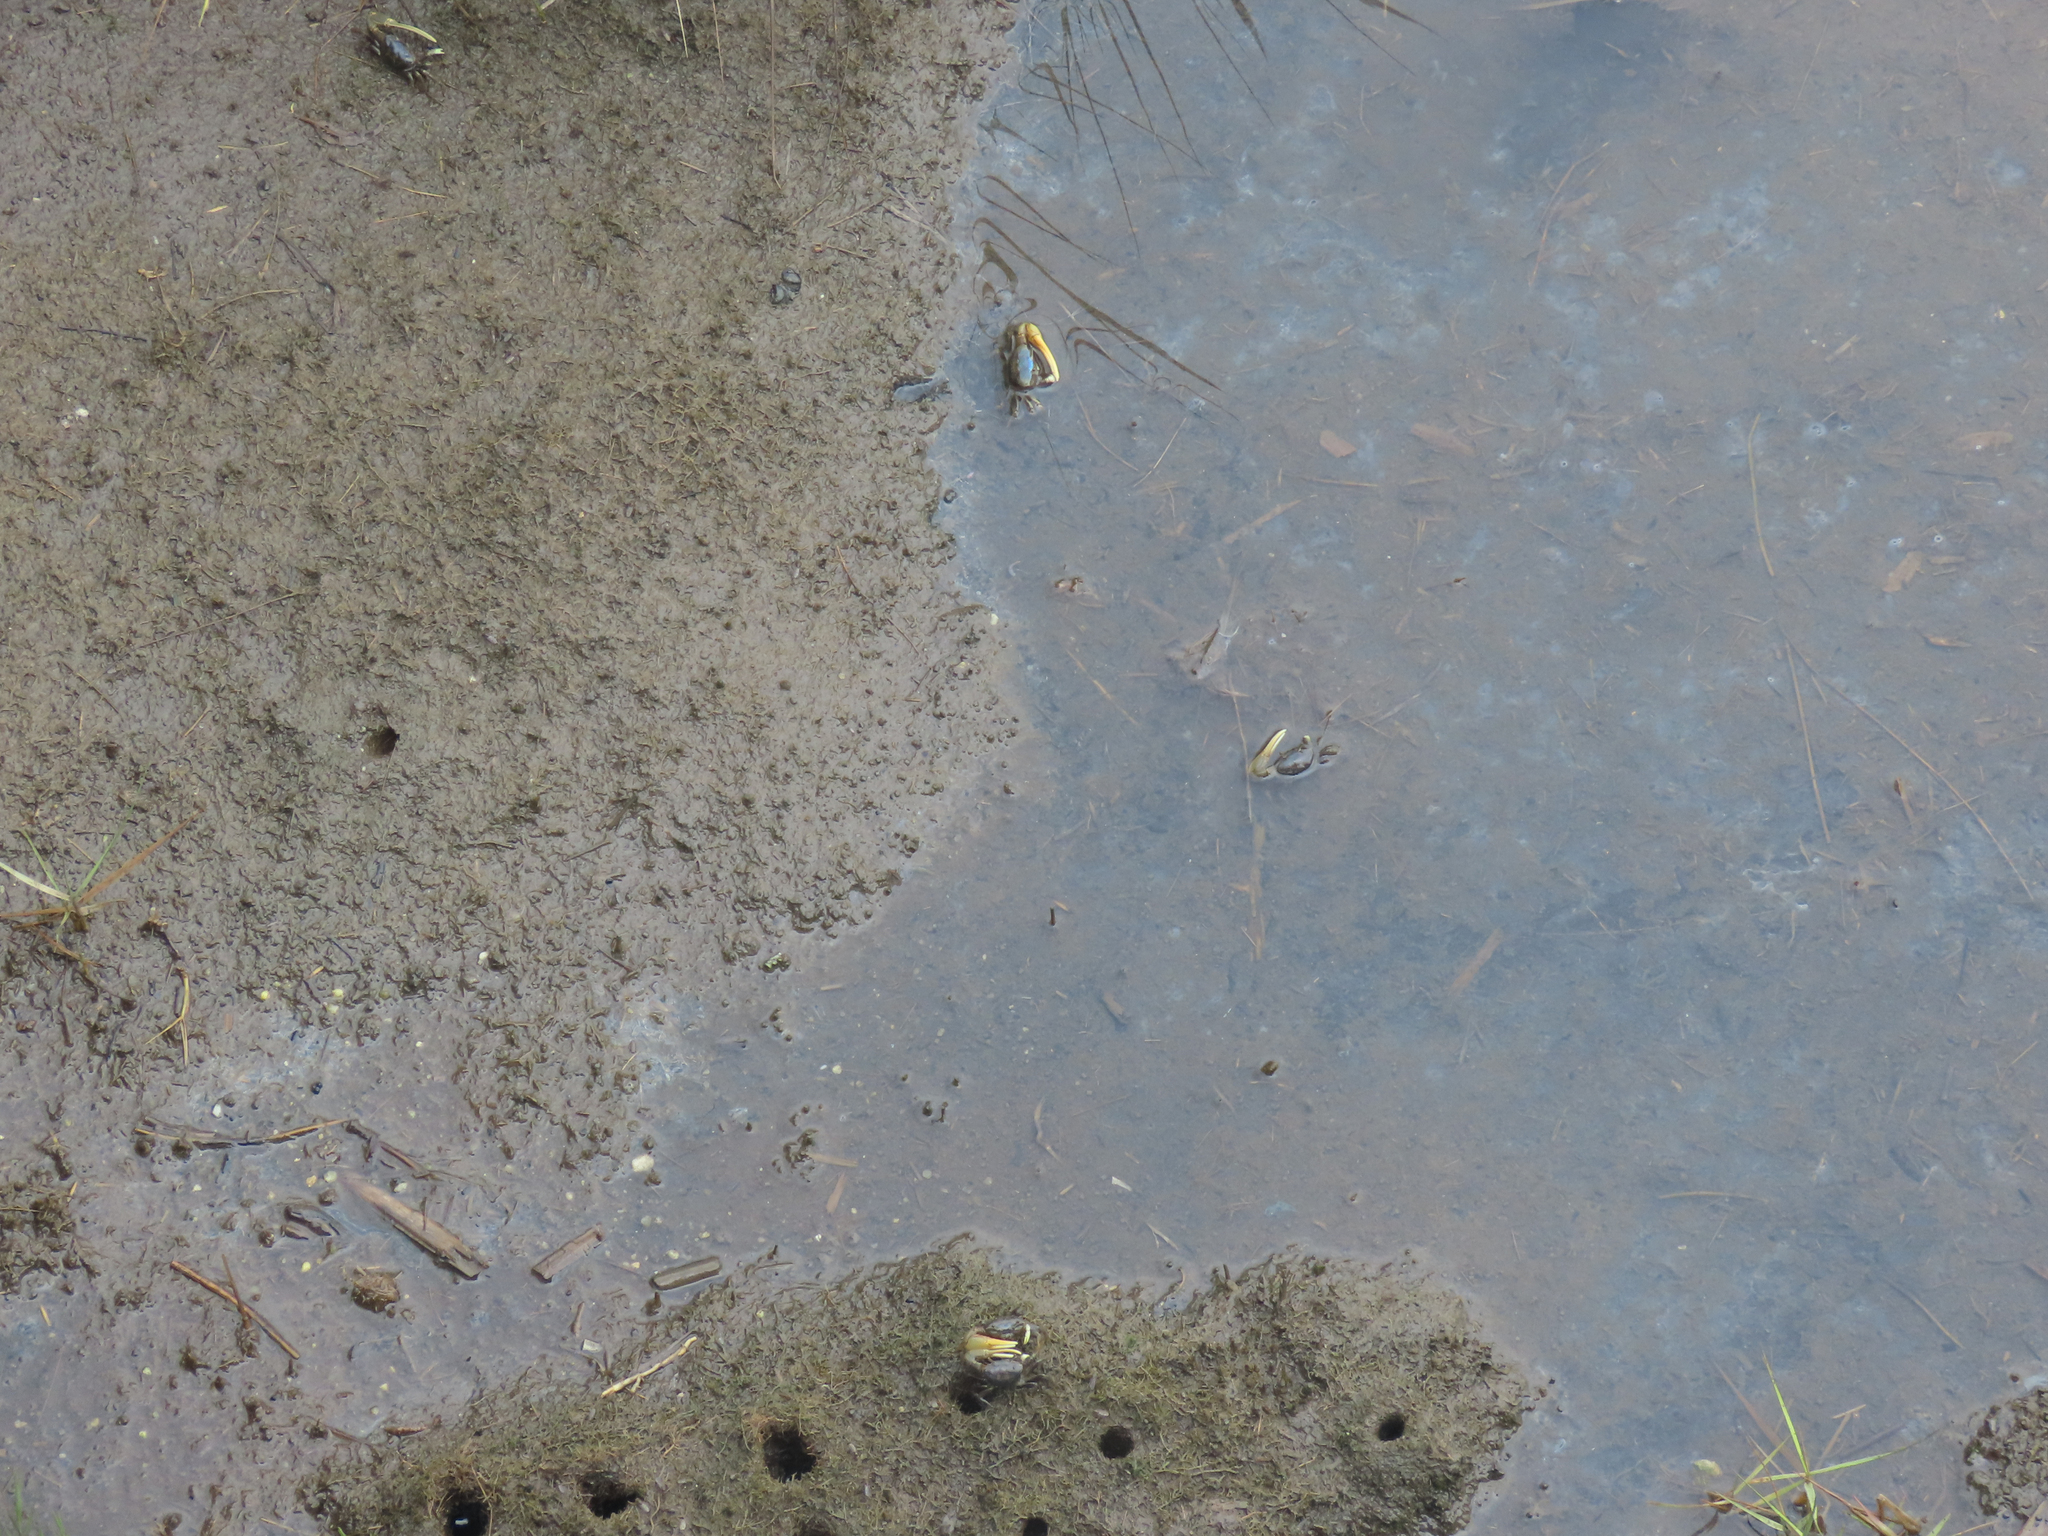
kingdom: Animalia
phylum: Arthropoda
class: Malacostraca
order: Decapoda
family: Ocypodidae
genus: Minuca
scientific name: Minuca pugnax
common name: Mud fiddler crab
